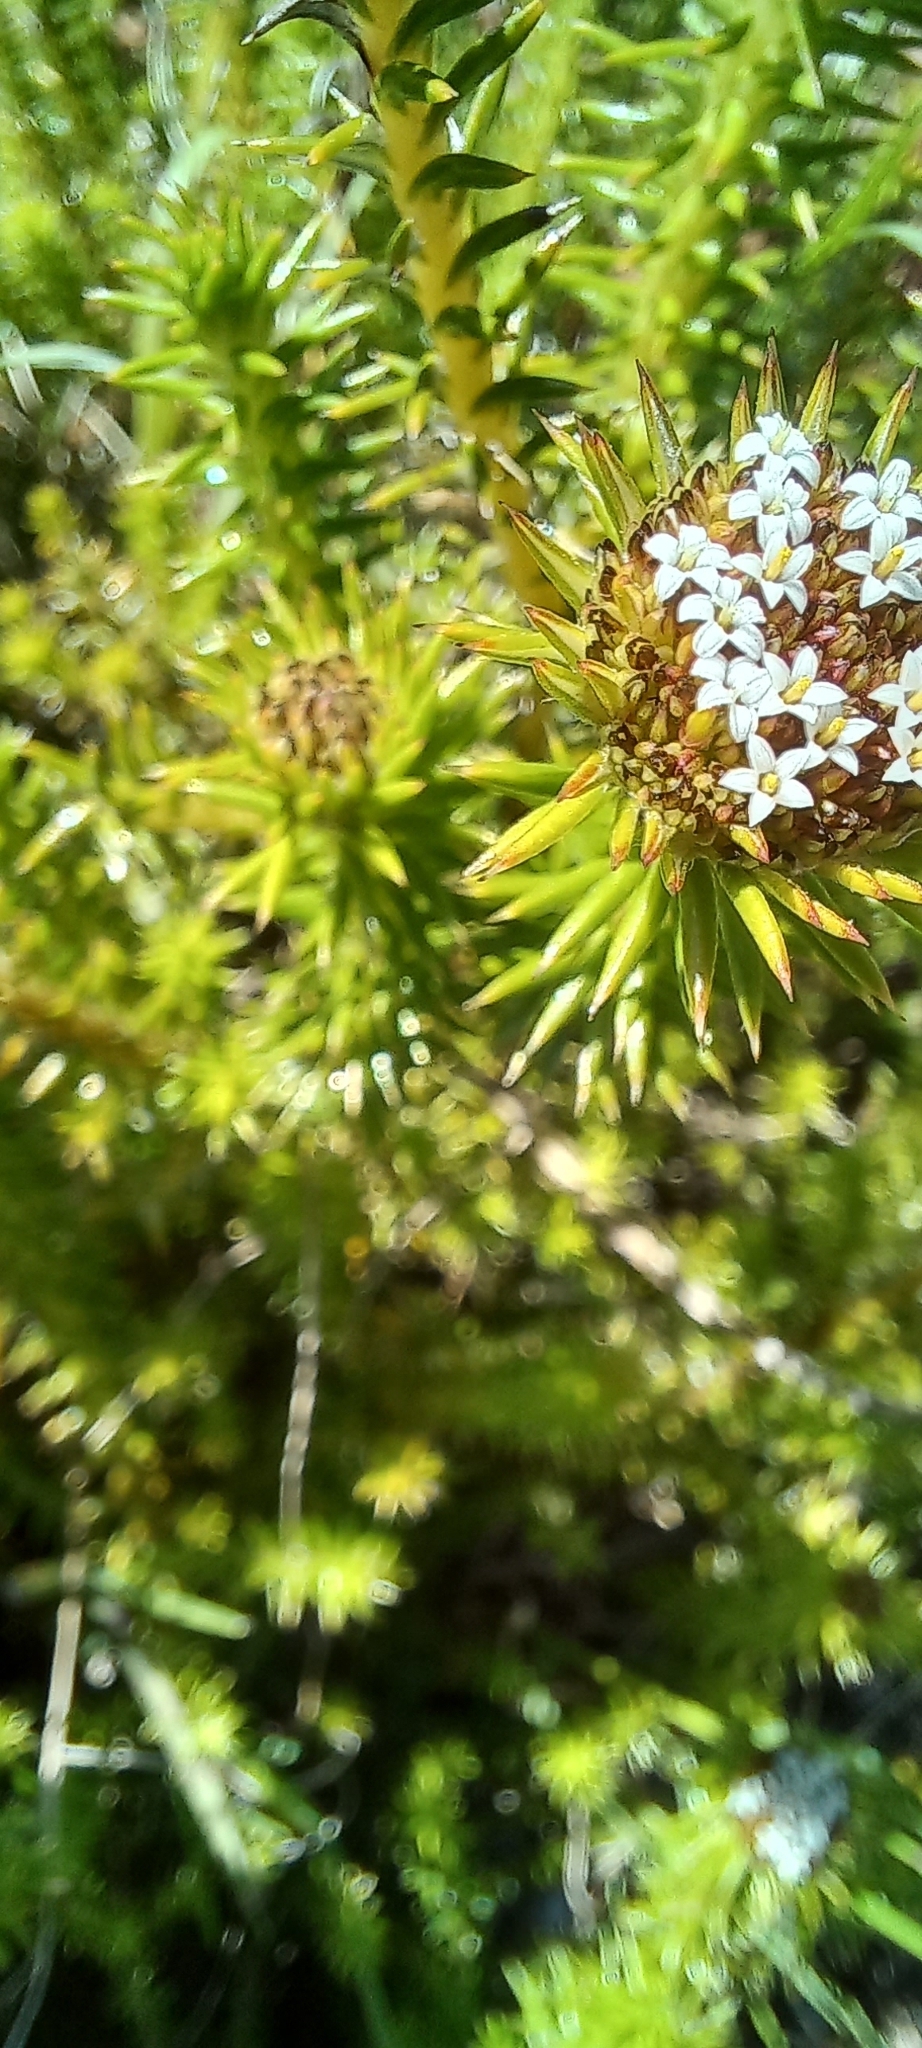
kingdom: Plantae
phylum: Tracheophyta
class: Magnoliopsida
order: Asterales
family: Asteraceae
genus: Stoebe
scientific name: Stoebe aethiopica
